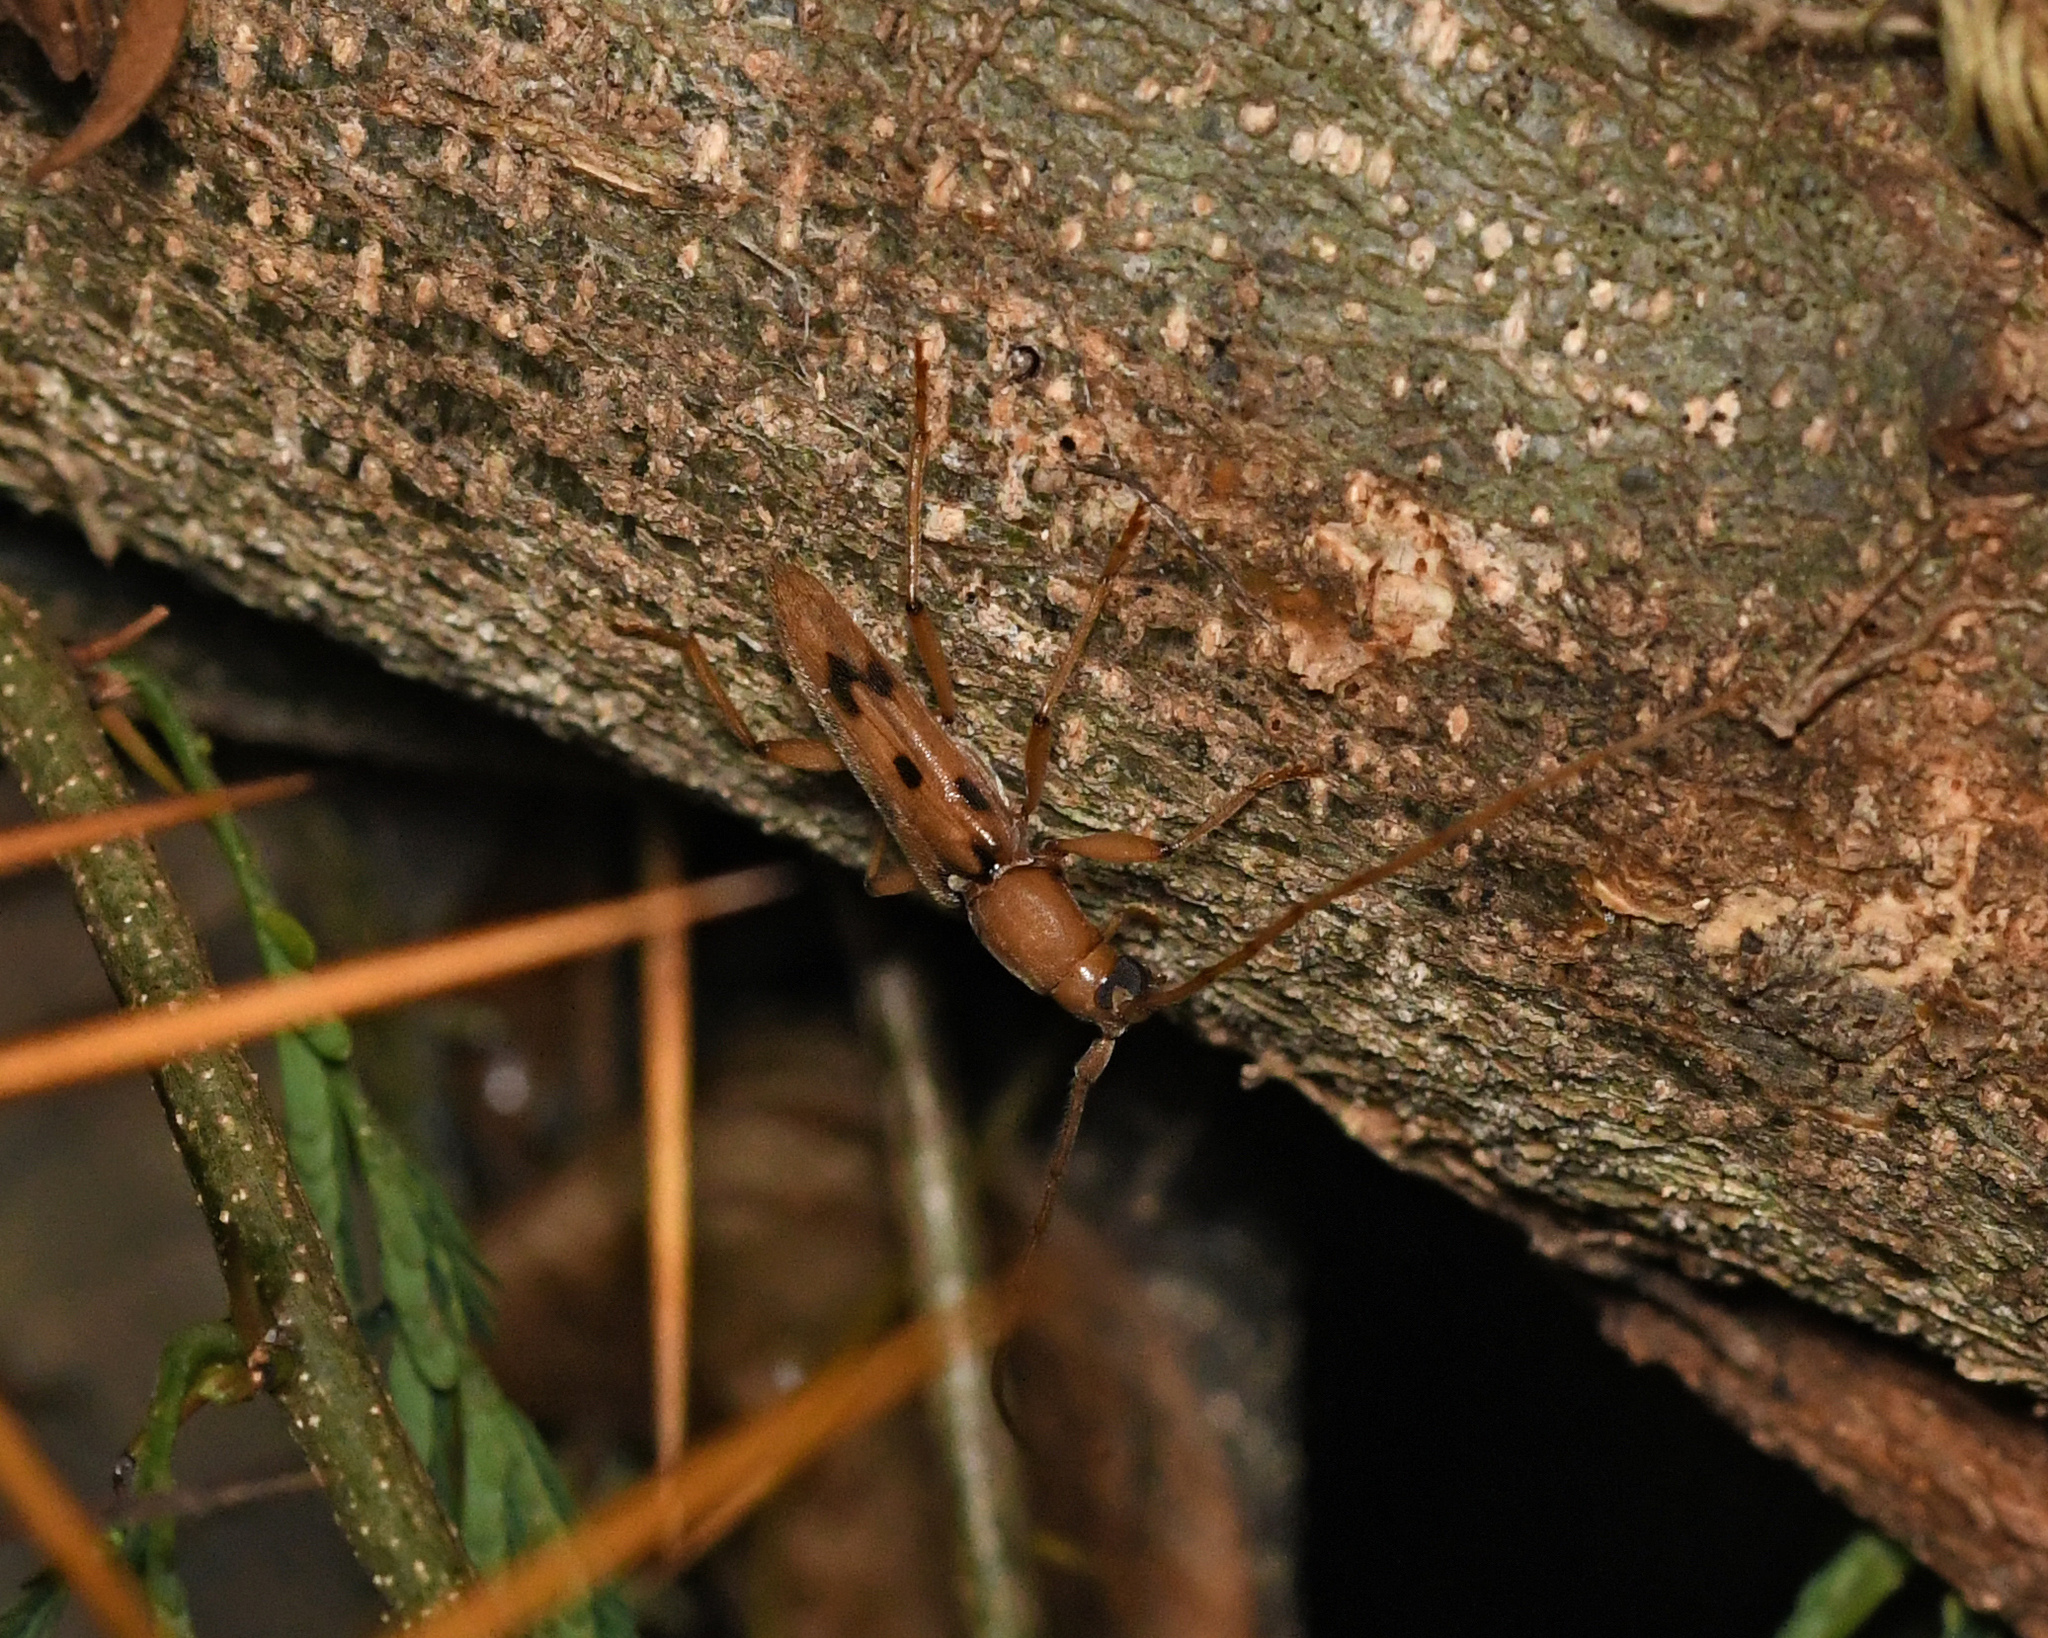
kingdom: Animalia
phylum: Arthropoda
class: Insecta
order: Coleoptera
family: Cerambycidae
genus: Achryson
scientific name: Achryson surinamum
